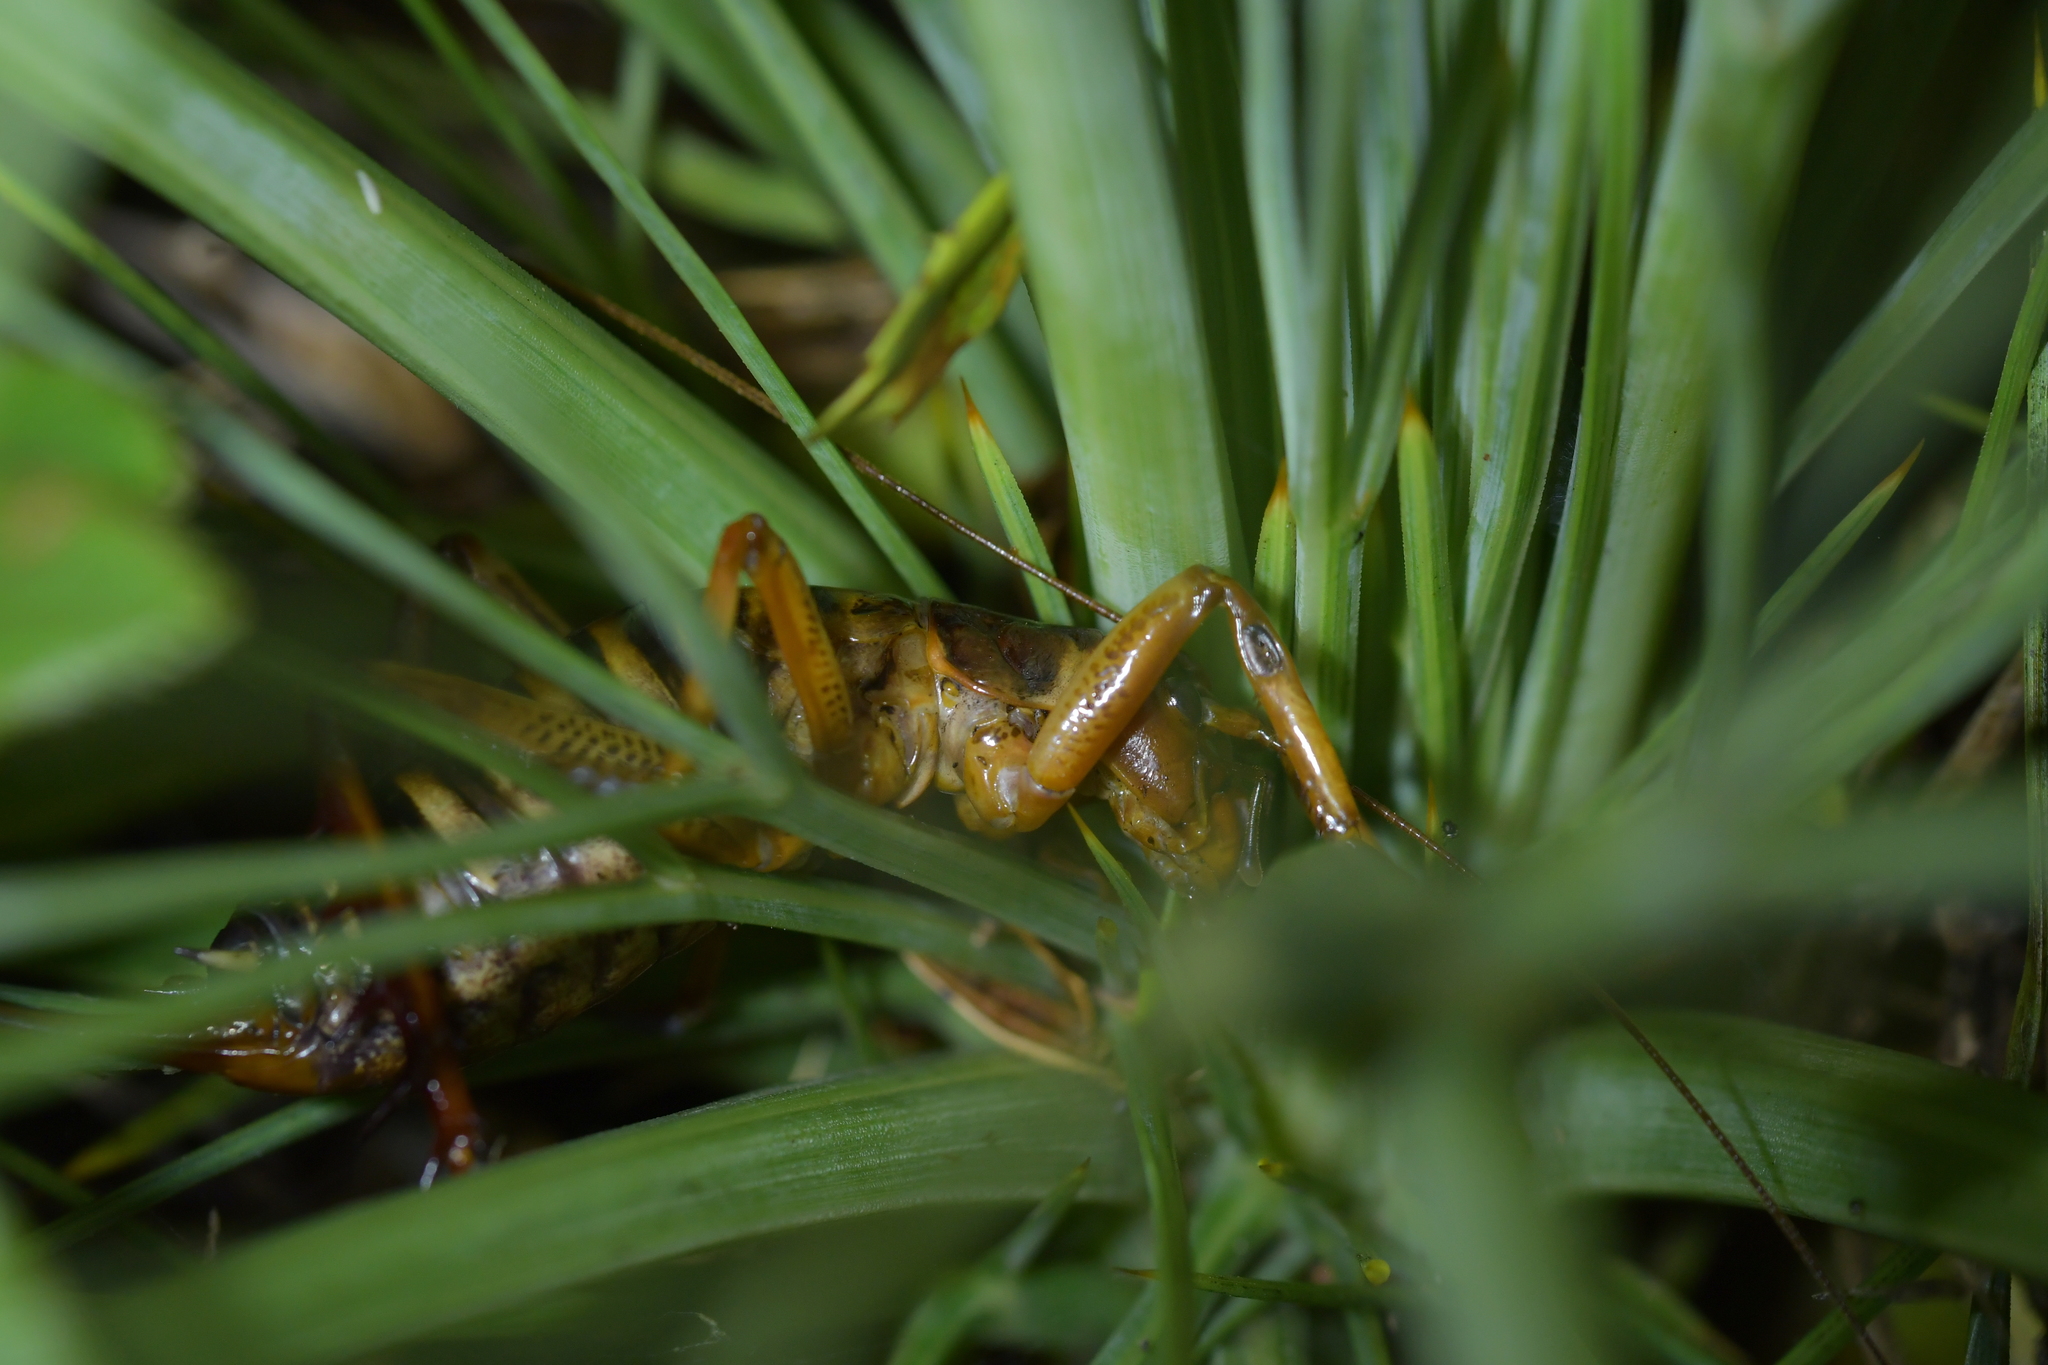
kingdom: Animalia
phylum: Arthropoda
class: Insecta
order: Orthoptera
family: Anostostomatidae
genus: Hemideina
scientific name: Hemideina crassidens
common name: Wellington tree weta
